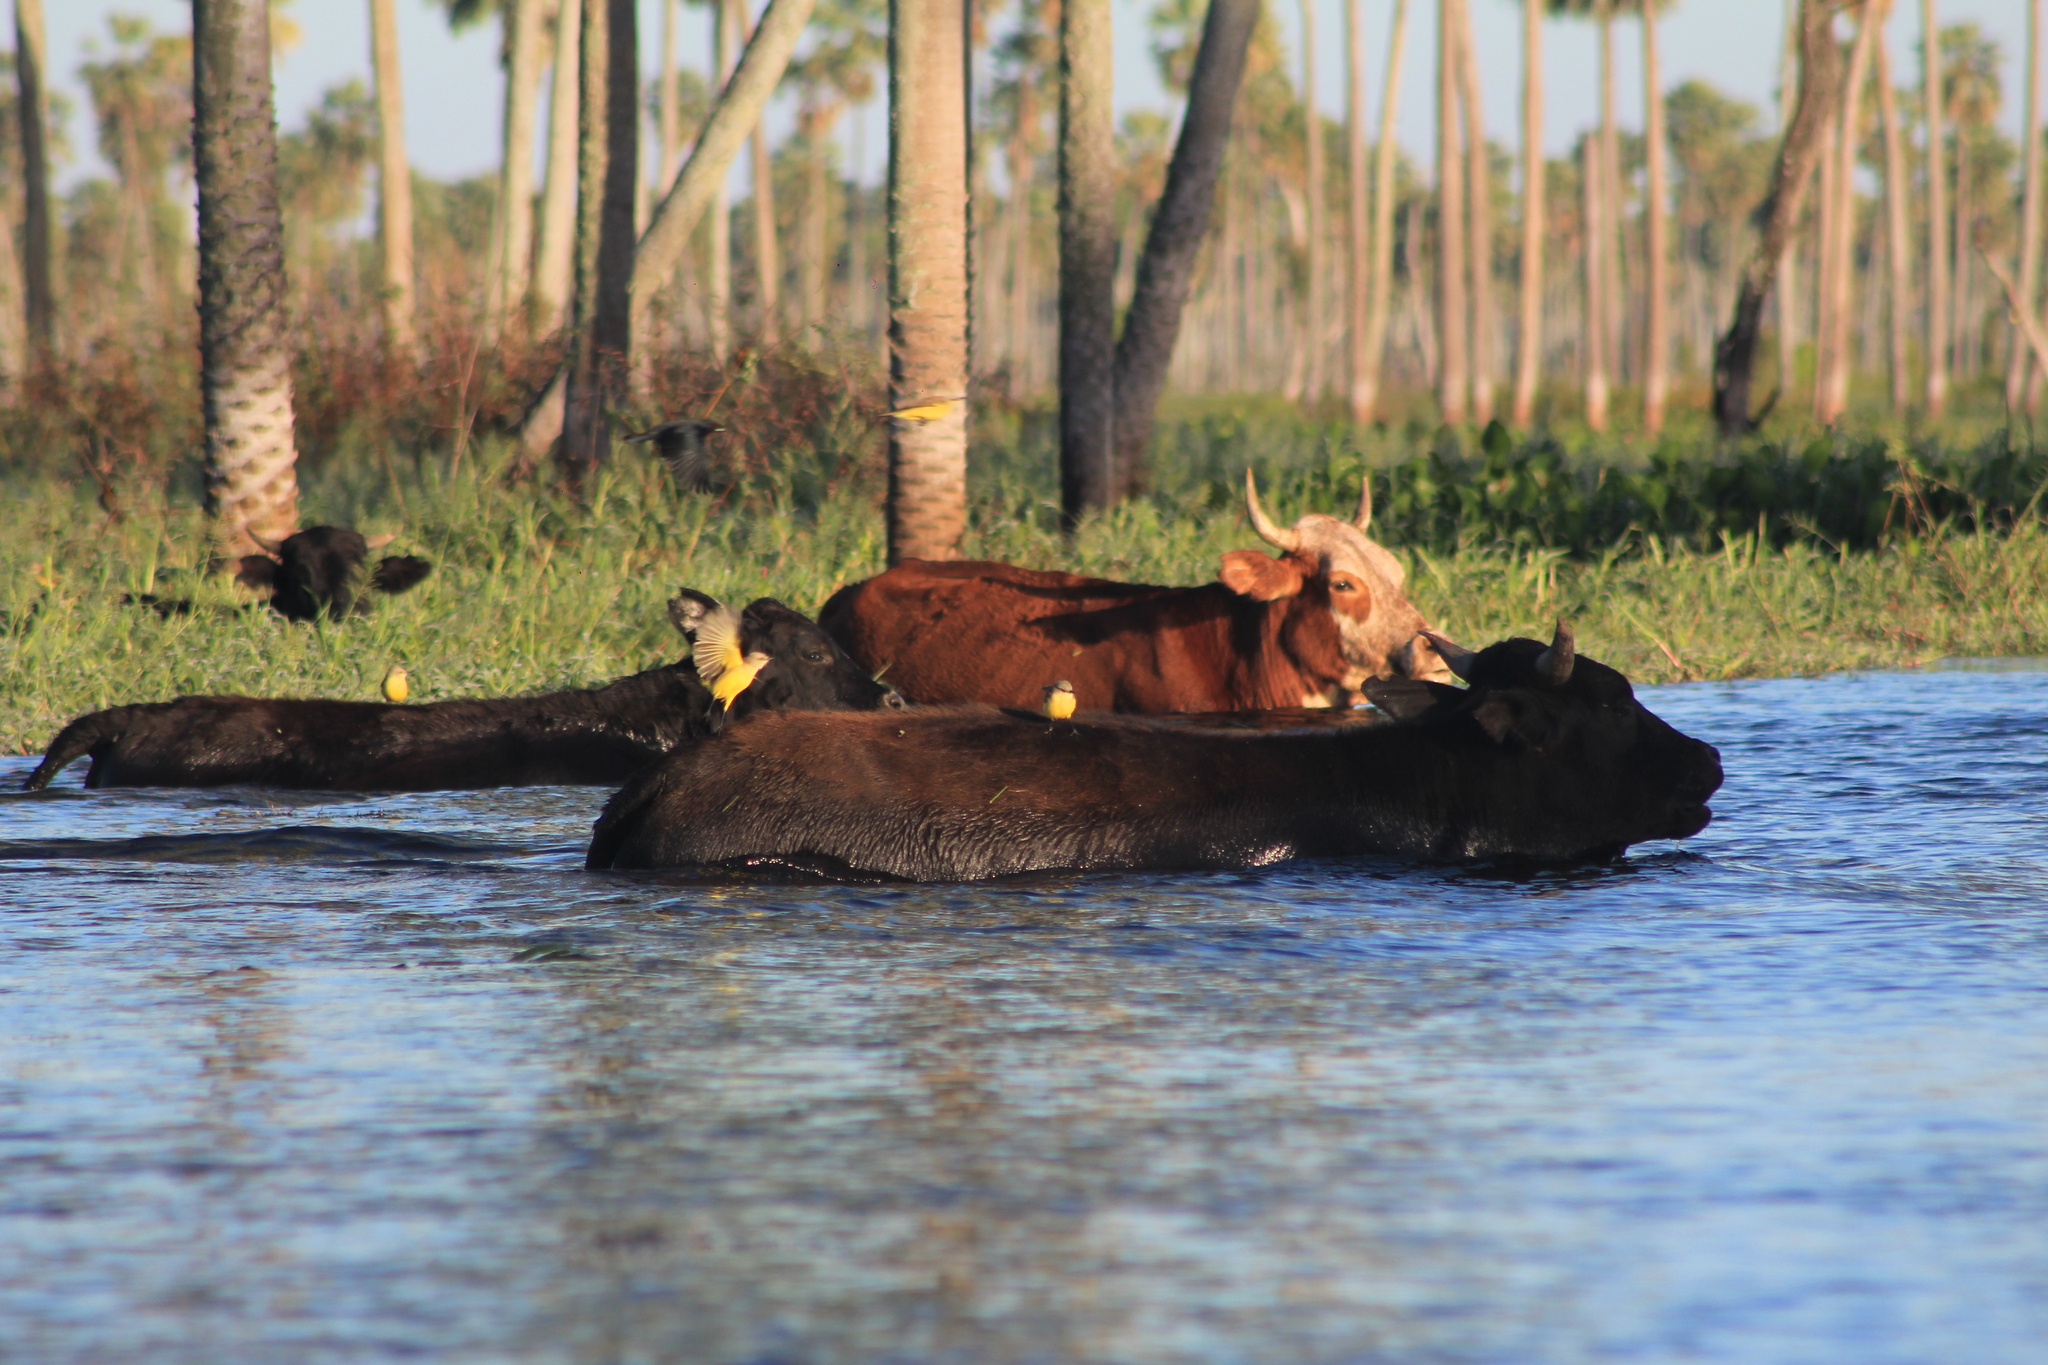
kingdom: Animalia
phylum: Chordata
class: Aves
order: Passeriformes
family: Tyrannidae
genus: Machetornis
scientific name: Machetornis rixosa
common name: Cattle tyrant
